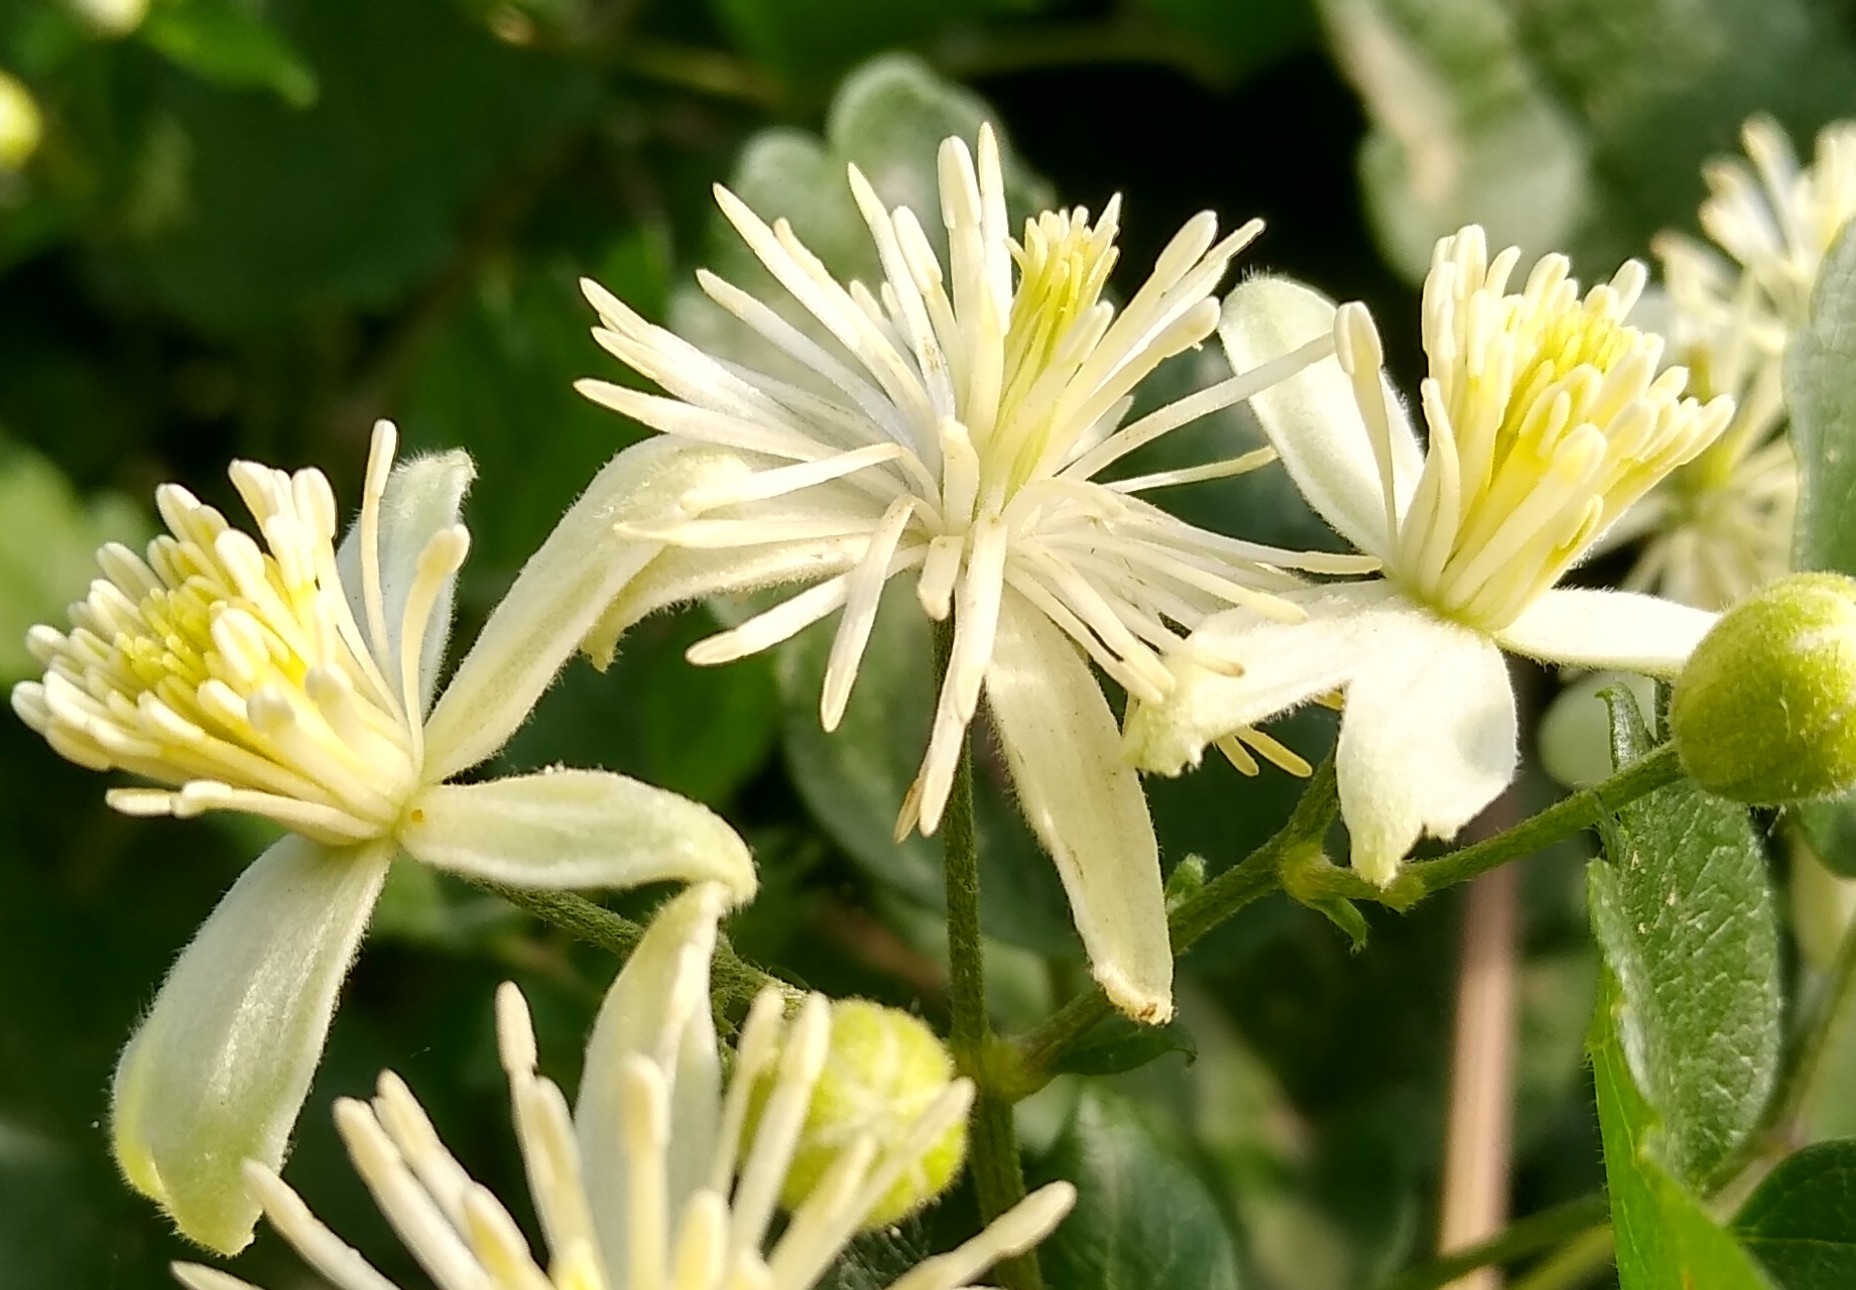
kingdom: Plantae
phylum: Tracheophyta
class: Magnoliopsida
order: Ranunculales
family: Ranunculaceae
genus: Clematis
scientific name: Clematis vitalba
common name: Evergreen clematis
